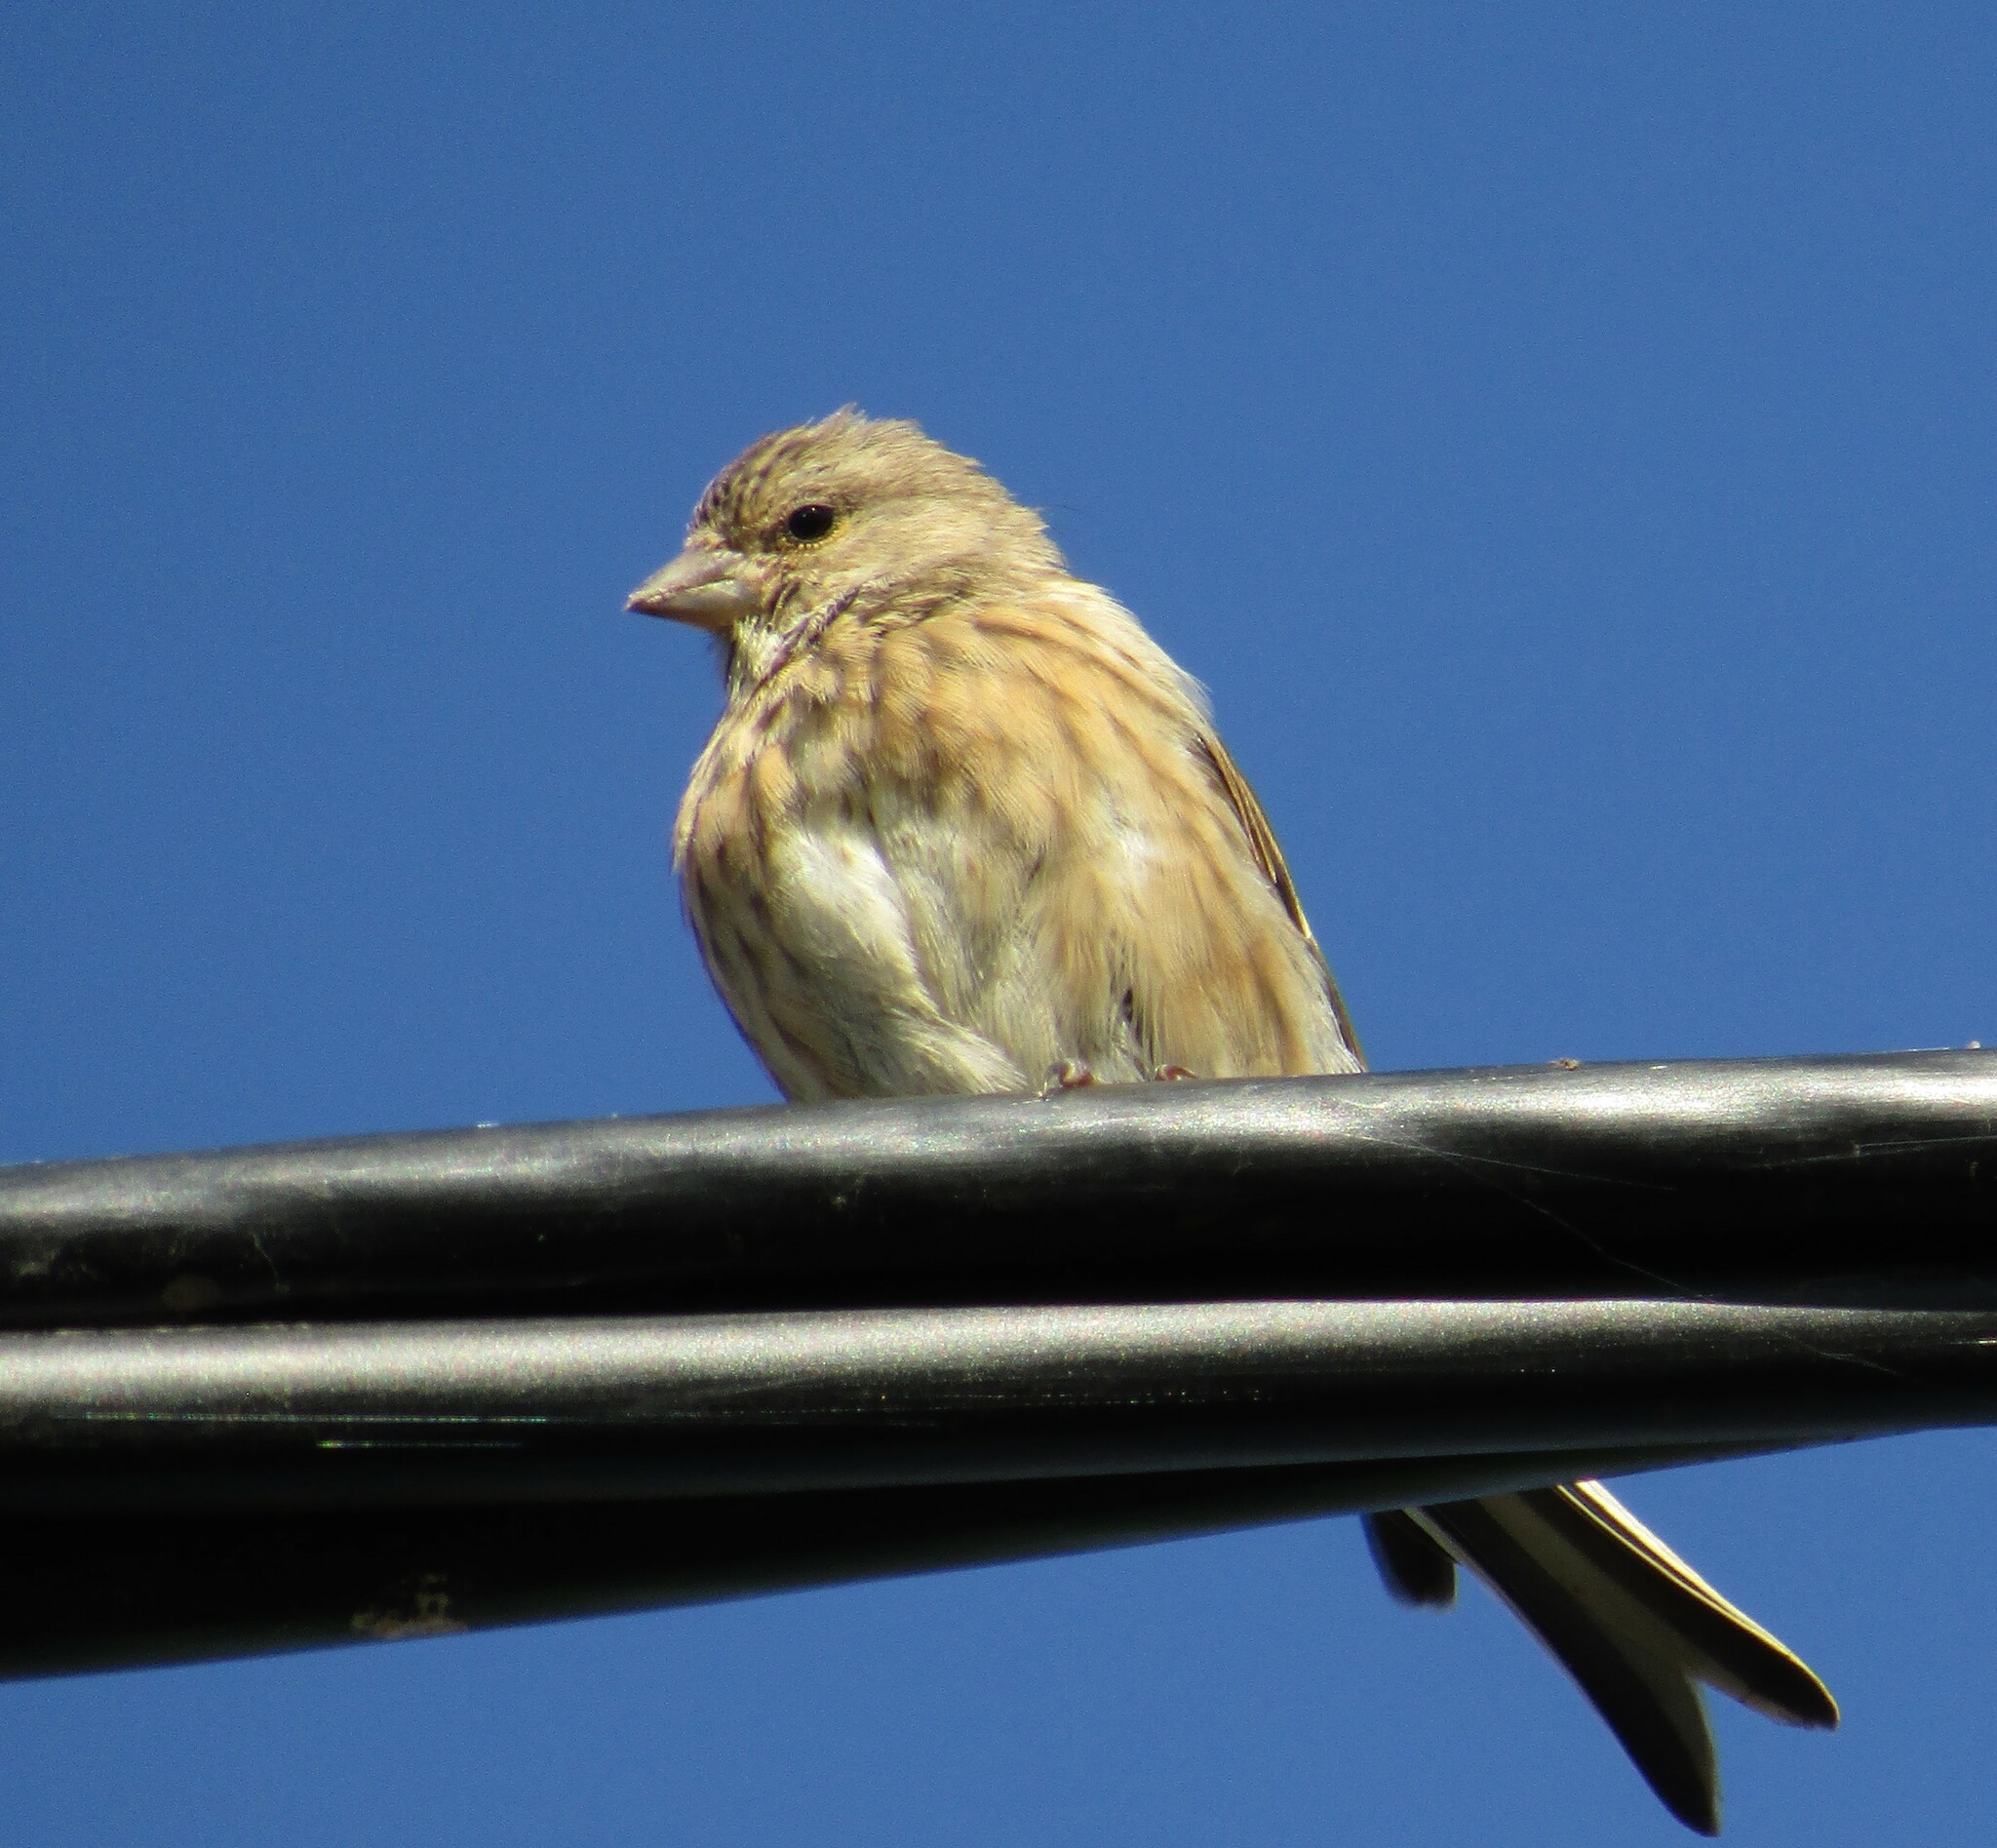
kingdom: Animalia
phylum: Chordata
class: Aves
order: Passeriformes
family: Fringillidae
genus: Linaria
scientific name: Linaria cannabina
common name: Common linnet
